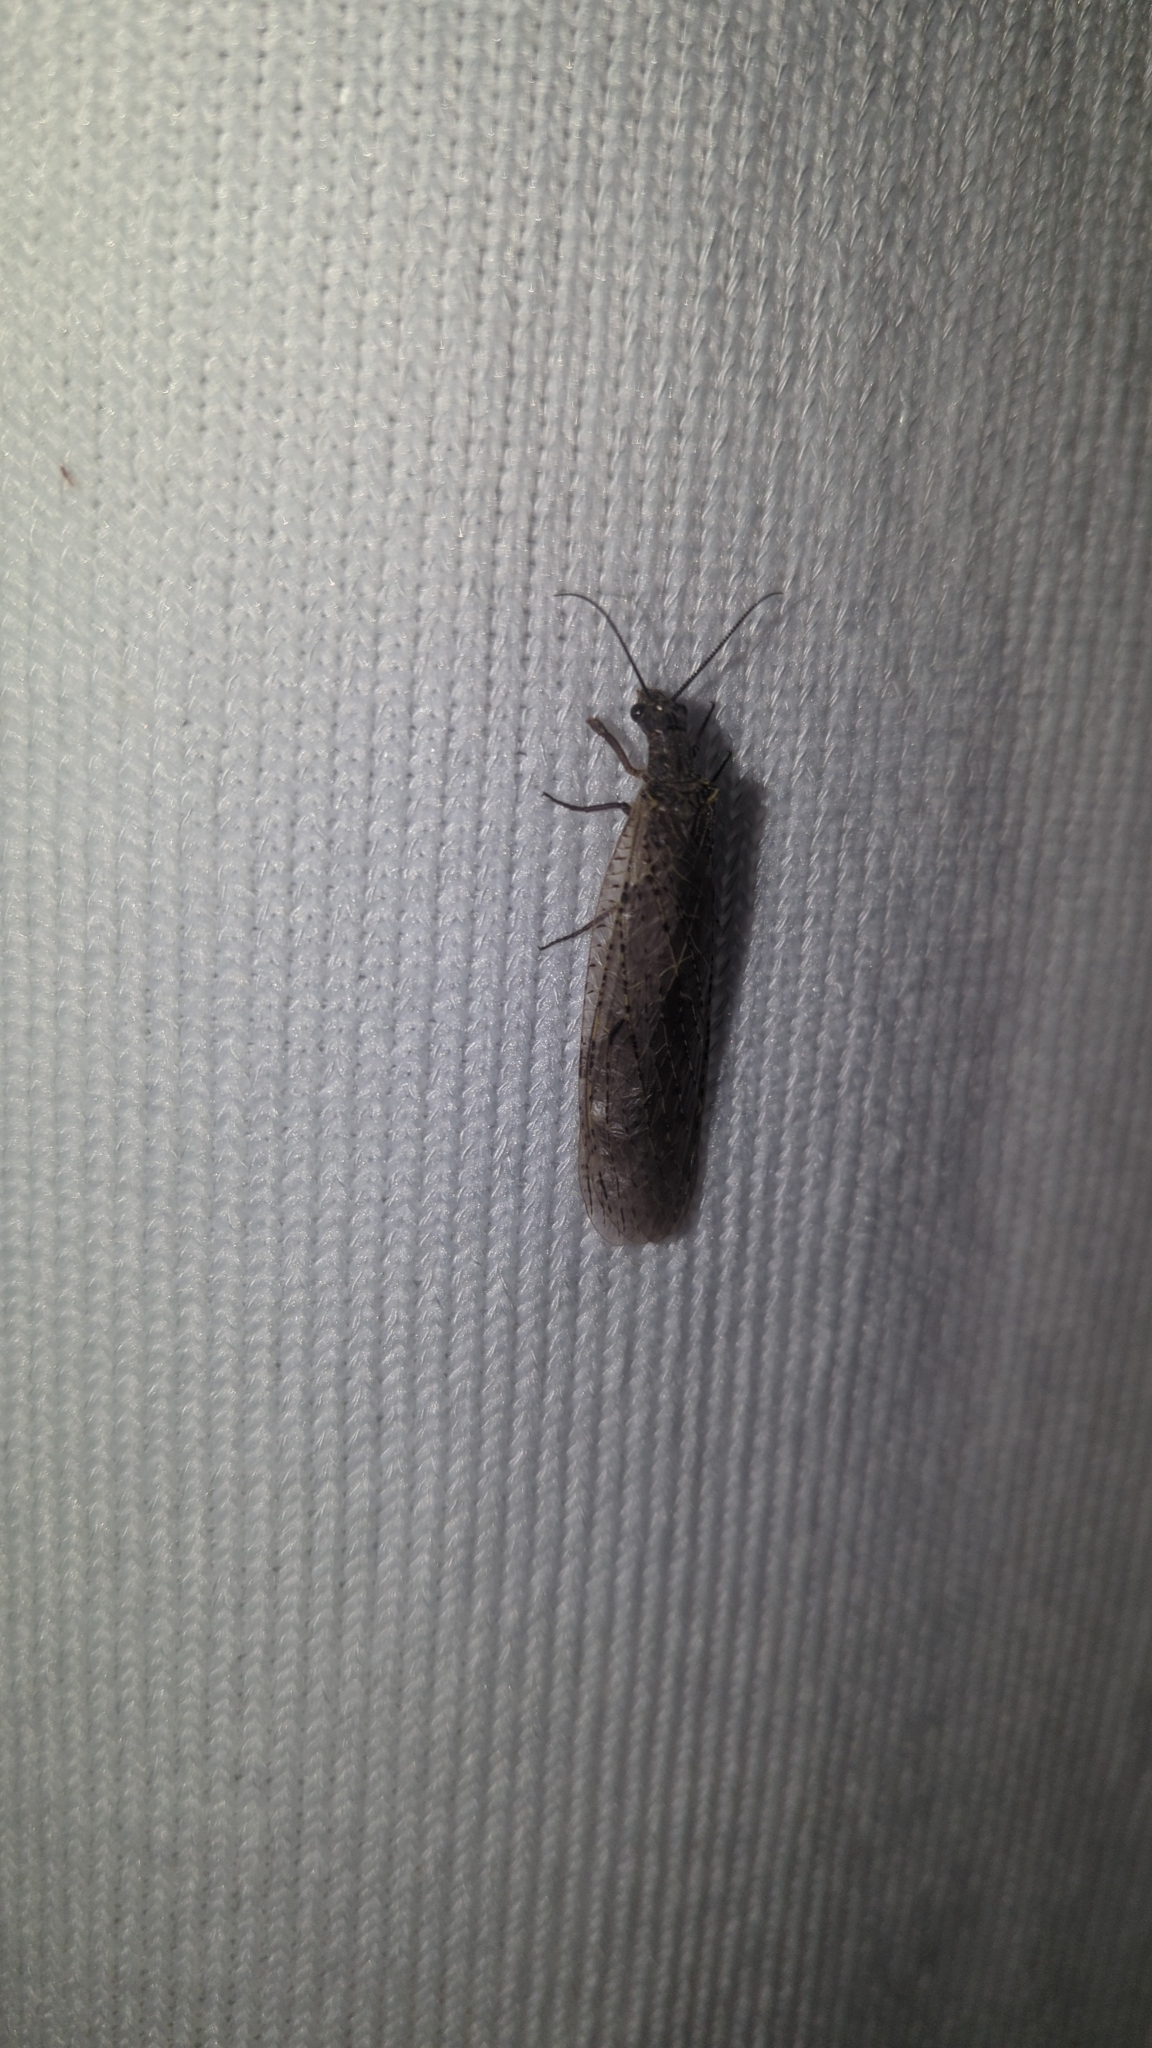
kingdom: Animalia
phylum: Arthropoda
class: Insecta
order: Megaloptera
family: Corydalidae
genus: Chauliodes
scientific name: Chauliodes rastricornis
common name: Spring fishfly
